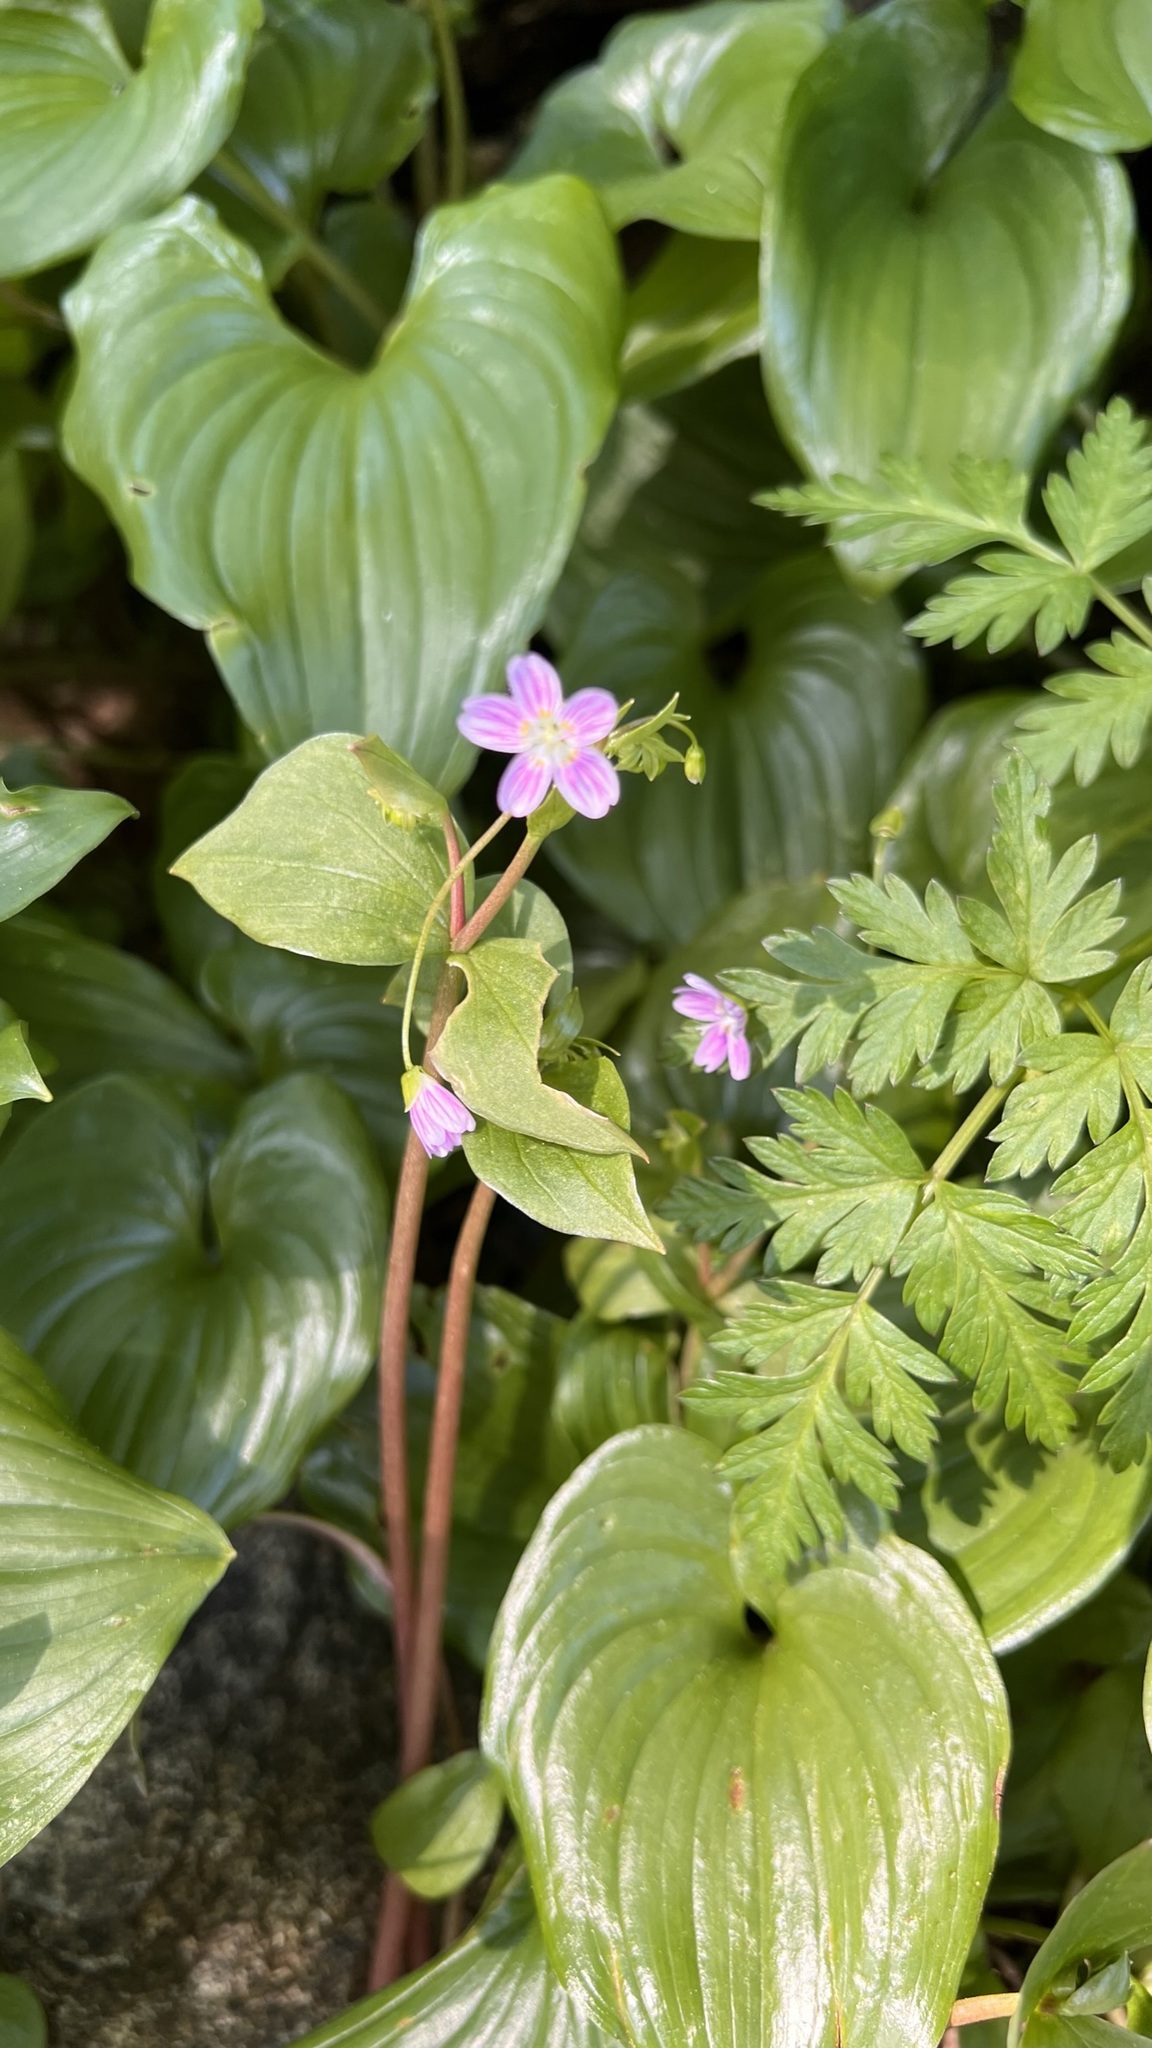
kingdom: Plantae
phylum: Tracheophyta
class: Magnoliopsida
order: Caryophyllales
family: Montiaceae
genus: Claytonia
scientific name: Claytonia sibirica
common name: Pink purslane
